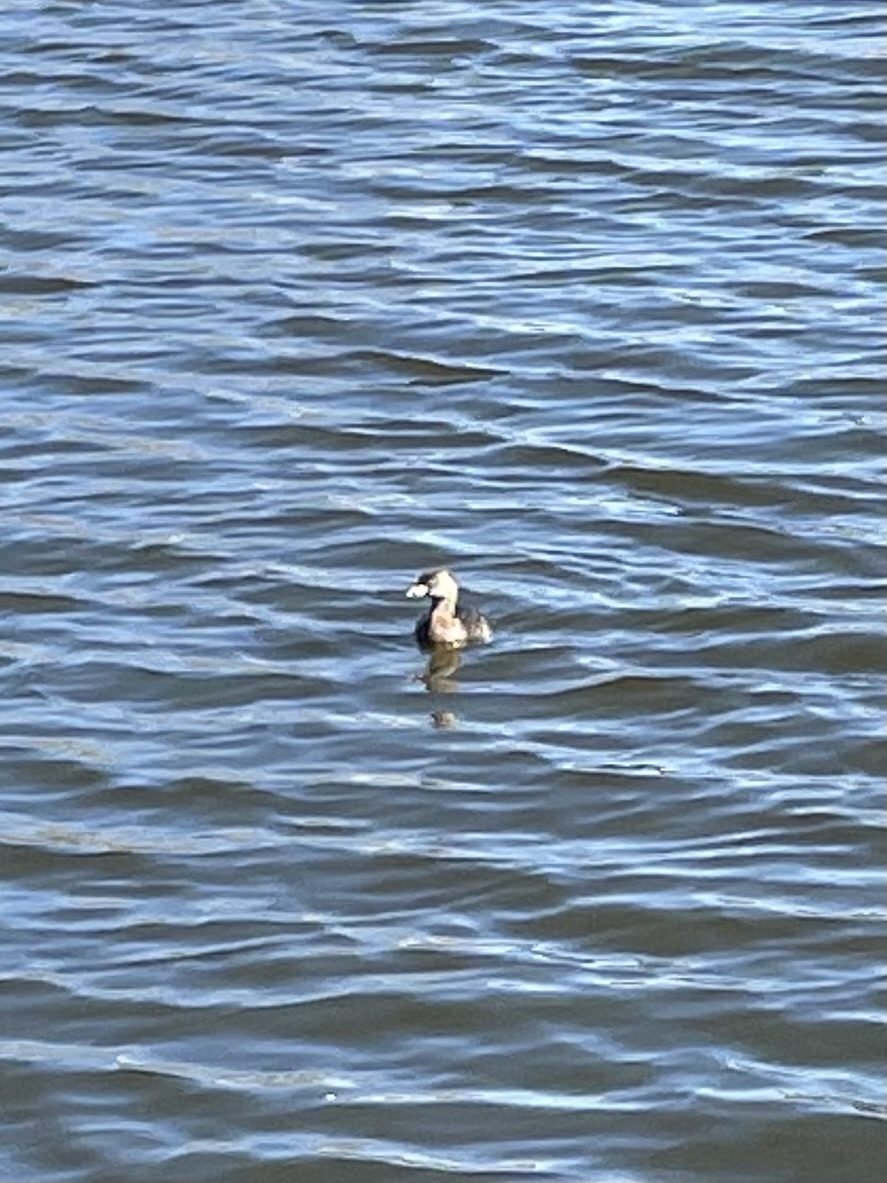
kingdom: Animalia
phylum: Chordata
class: Aves
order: Podicipediformes
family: Podicipedidae
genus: Podilymbus
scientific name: Podilymbus podiceps
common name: Pied-billed grebe
